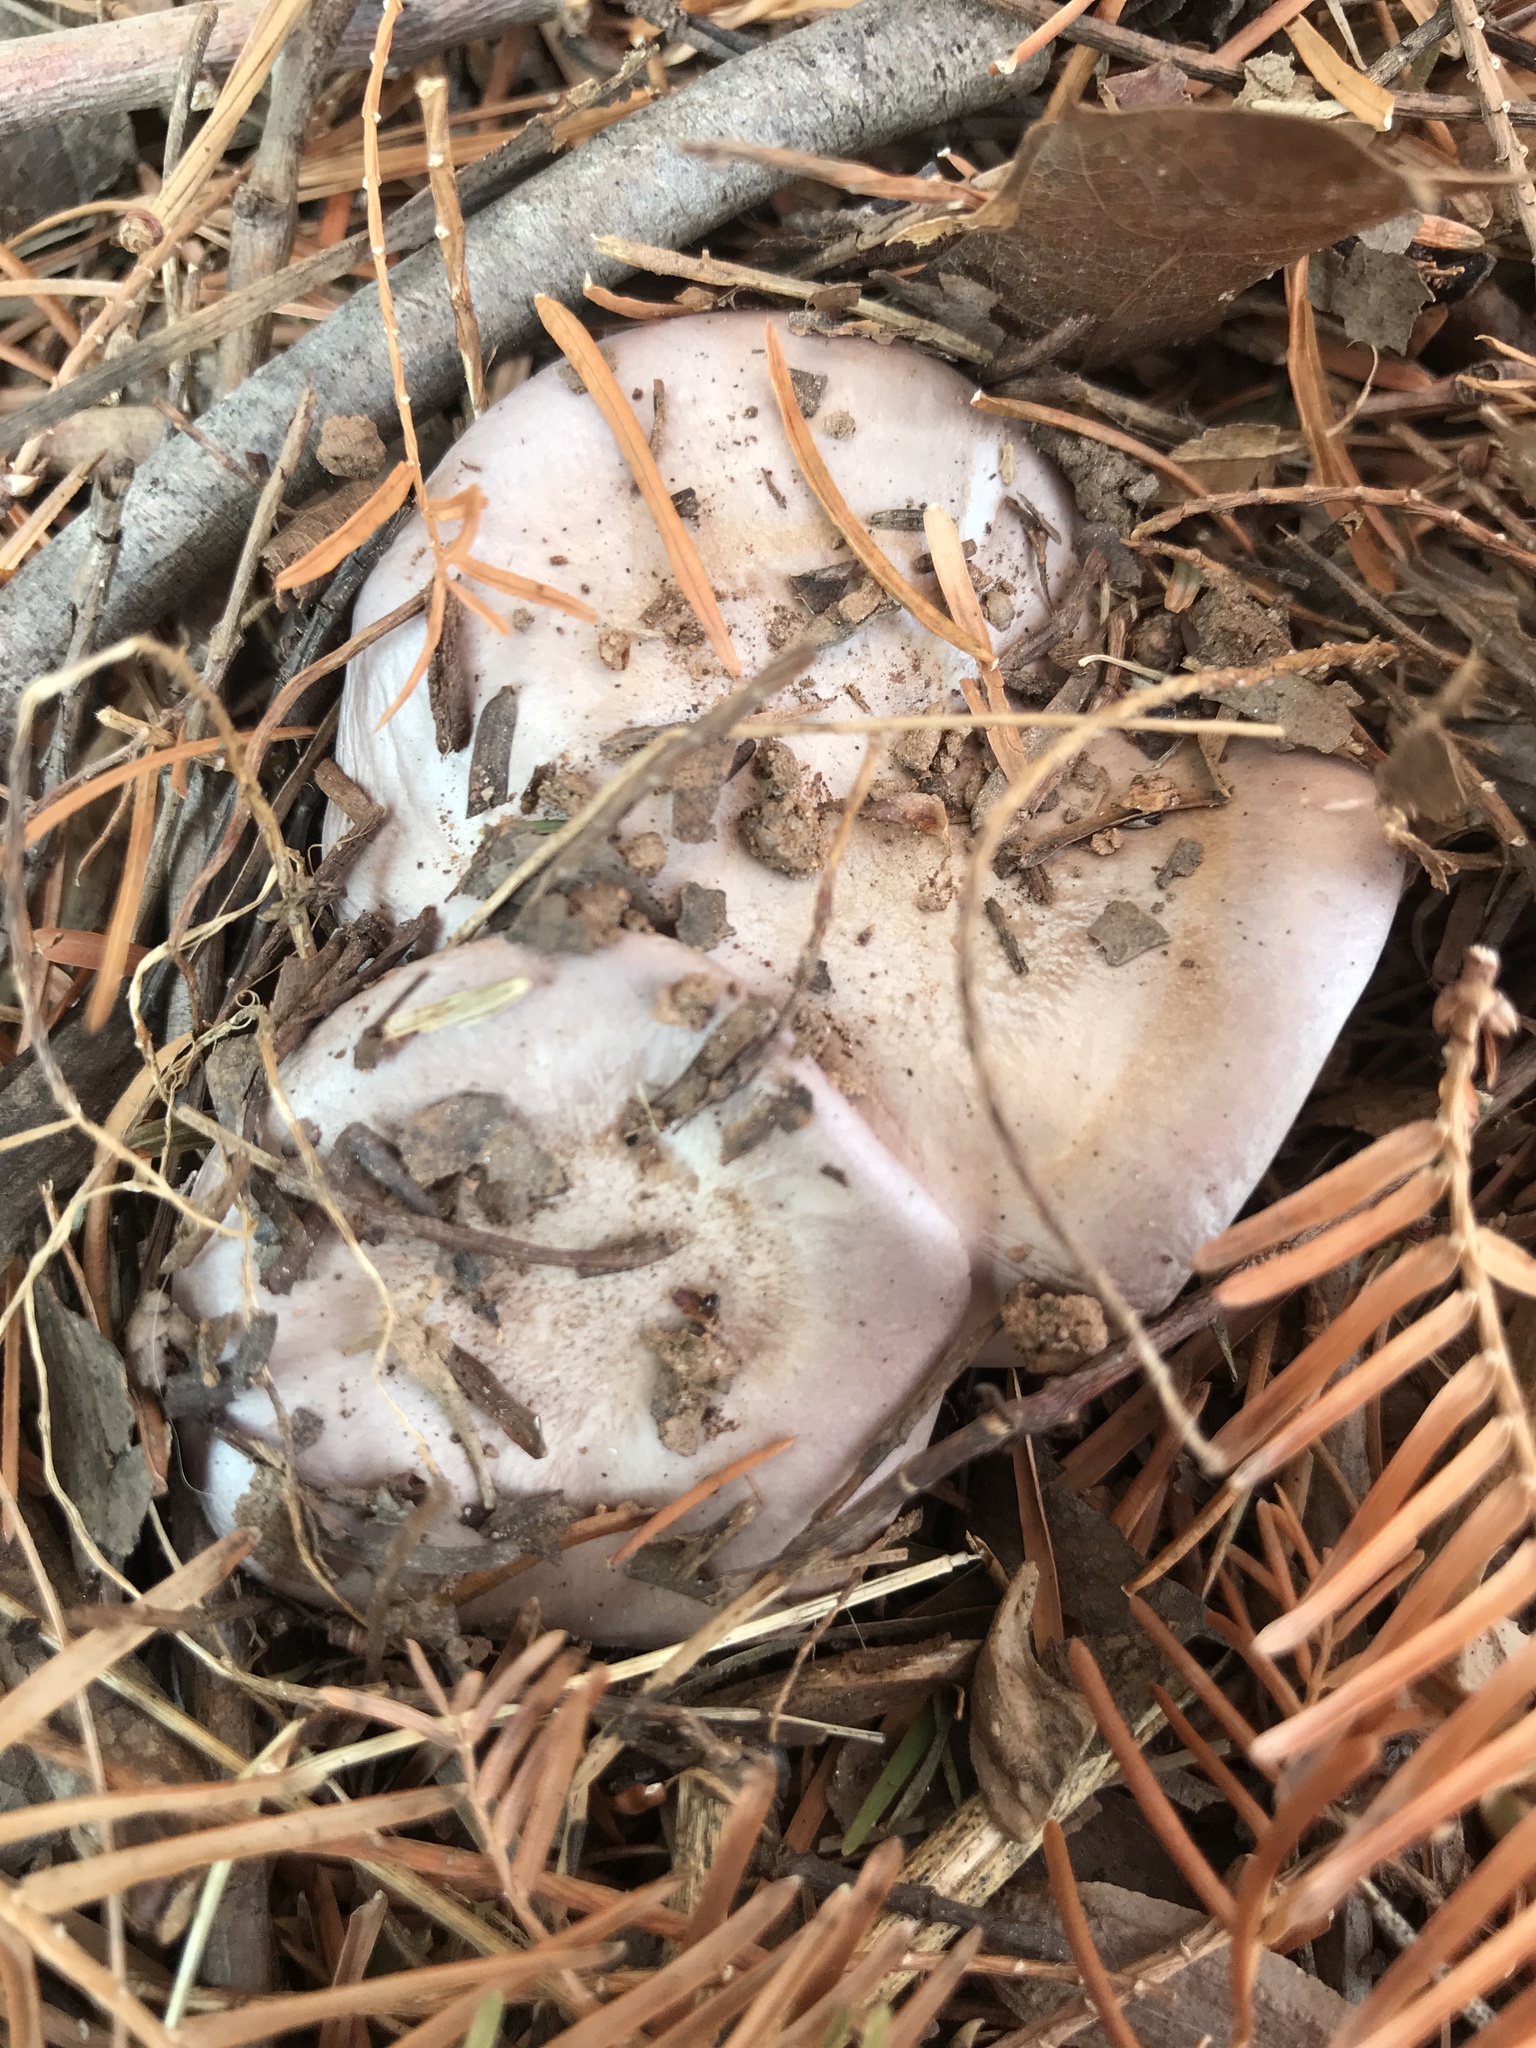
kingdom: Fungi
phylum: Basidiomycota
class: Agaricomycetes
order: Agaricales
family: Tricholomataceae
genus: Collybia
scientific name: Collybia
